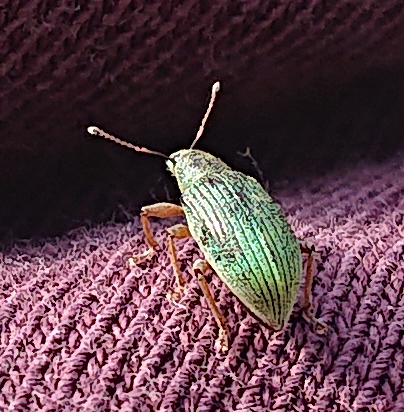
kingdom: Animalia
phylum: Arthropoda
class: Insecta
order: Coleoptera
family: Curculionidae
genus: Polydrusus
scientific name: Polydrusus formosus
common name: Weevil
